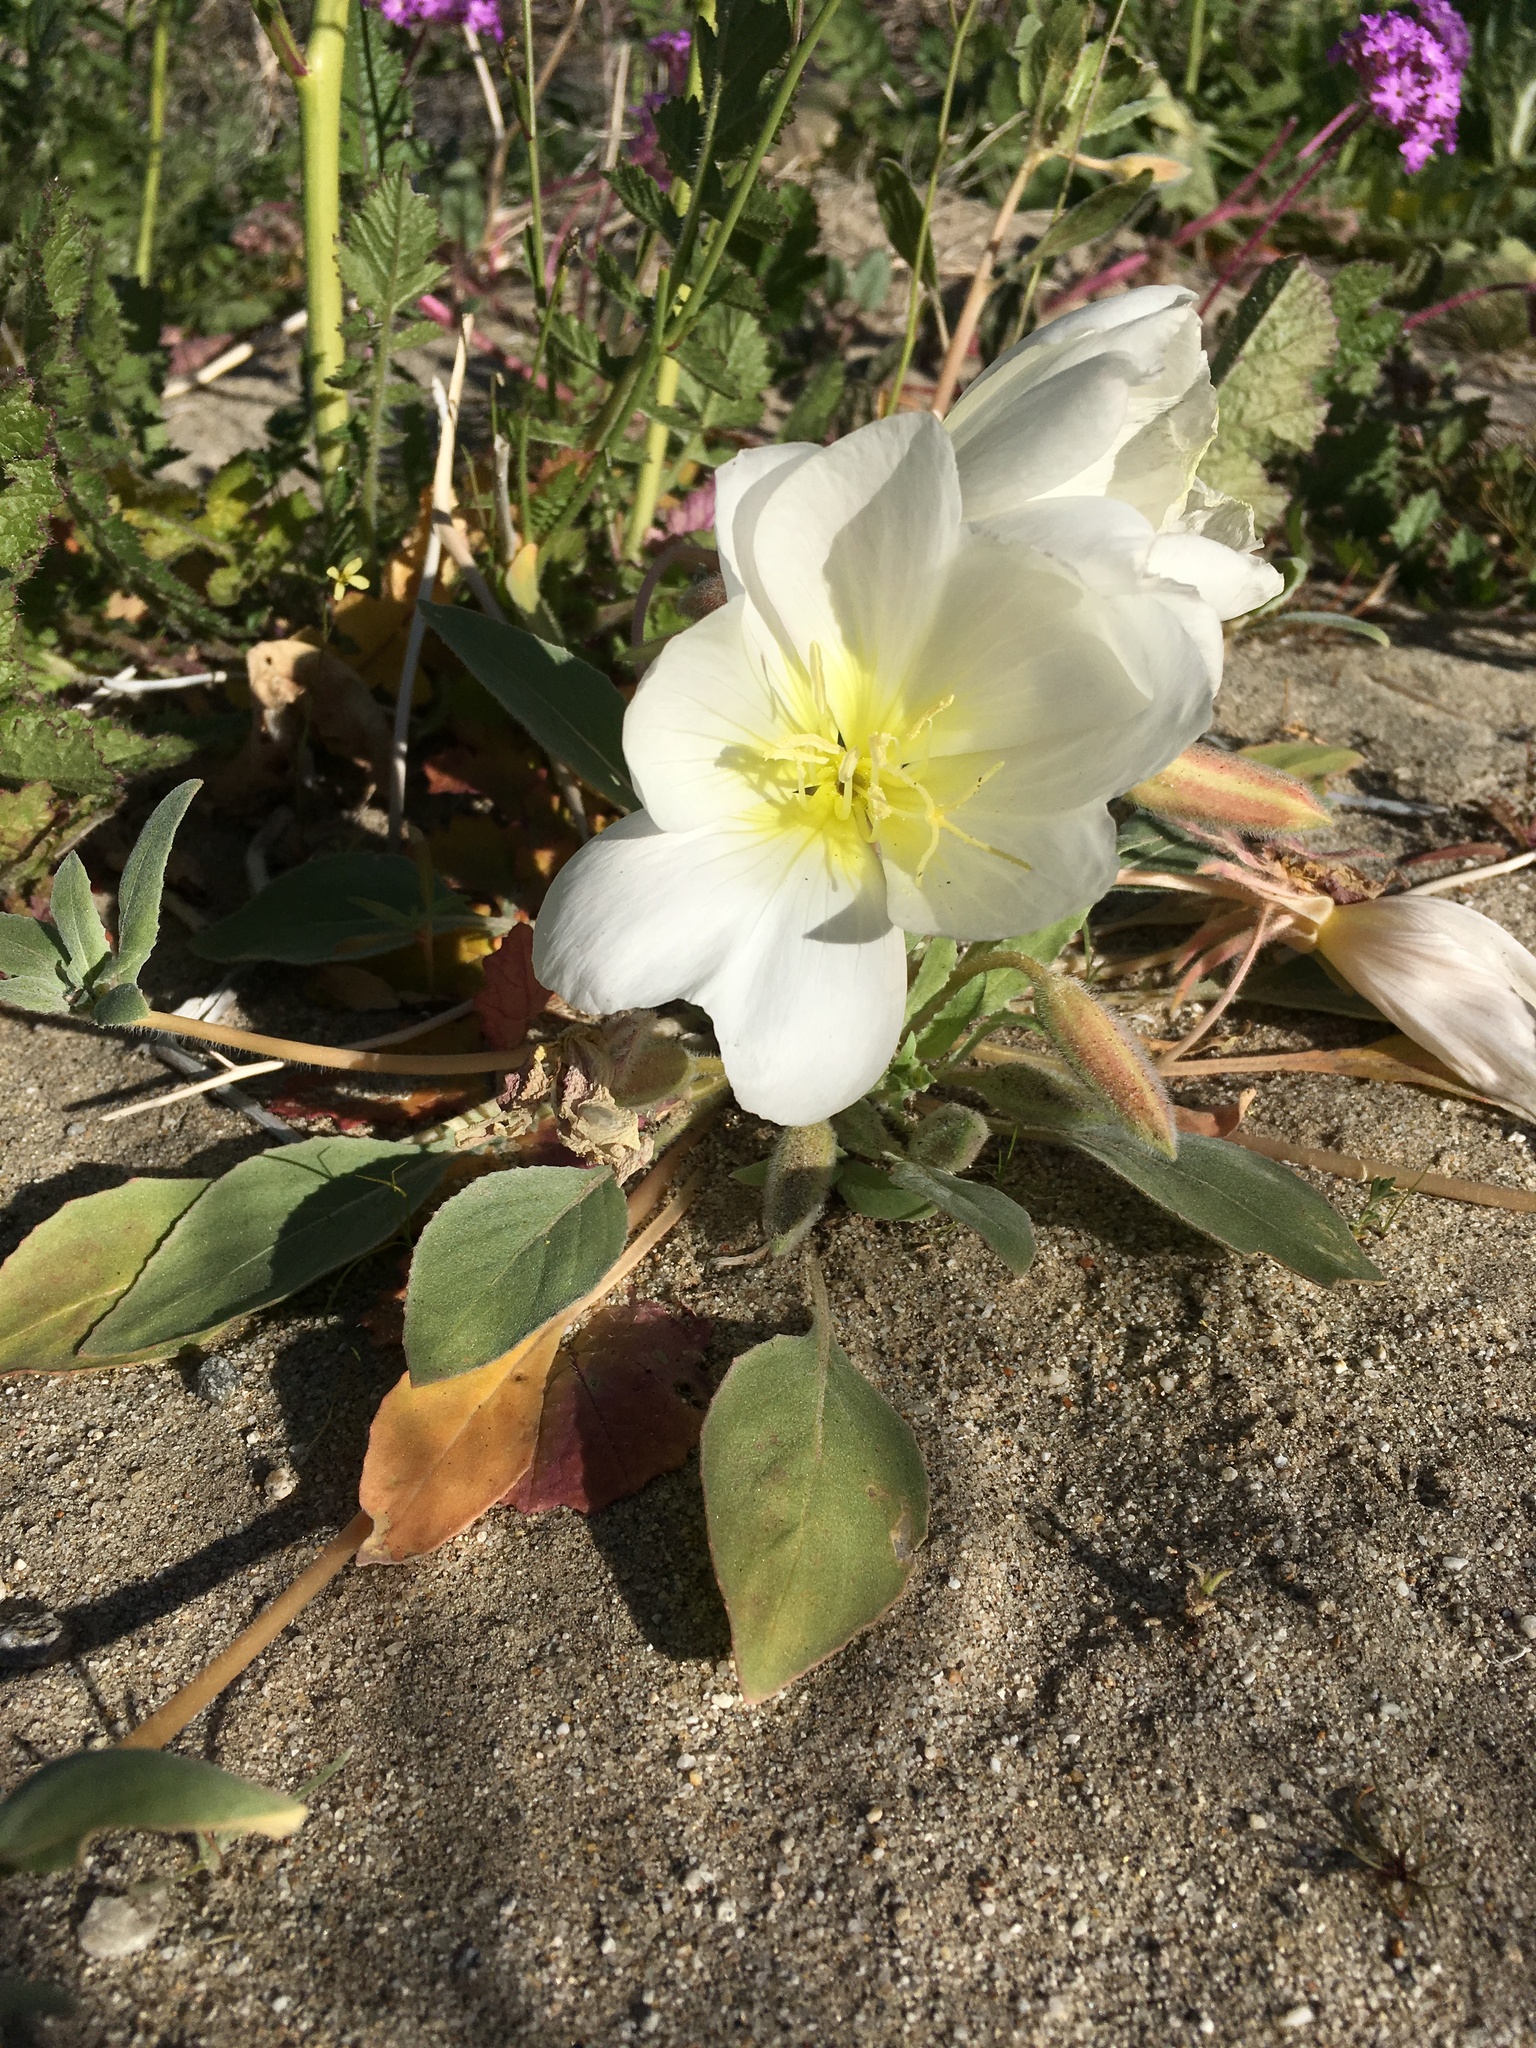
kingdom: Plantae
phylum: Tracheophyta
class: Magnoliopsida
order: Myrtales
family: Onagraceae
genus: Oenothera
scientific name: Oenothera deltoides
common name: Basket evening-primrose
